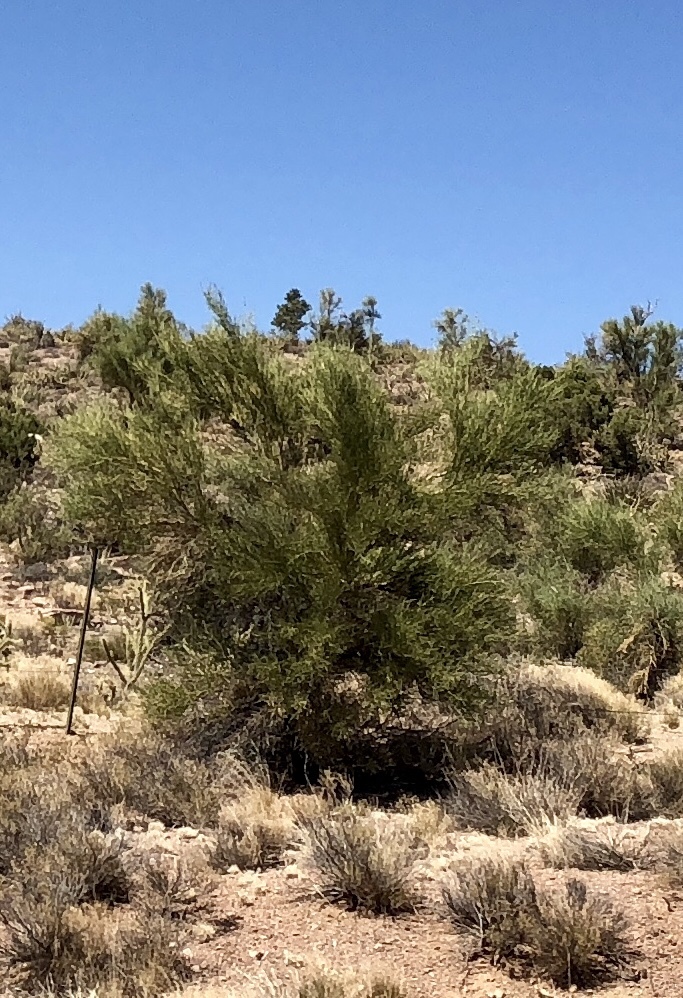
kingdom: Plantae
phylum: Tracheophyta
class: Magnoliopsida
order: Celastrales
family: Celastraceae
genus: Canotia
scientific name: Canotia holacantha
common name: Crucifixion thorns
